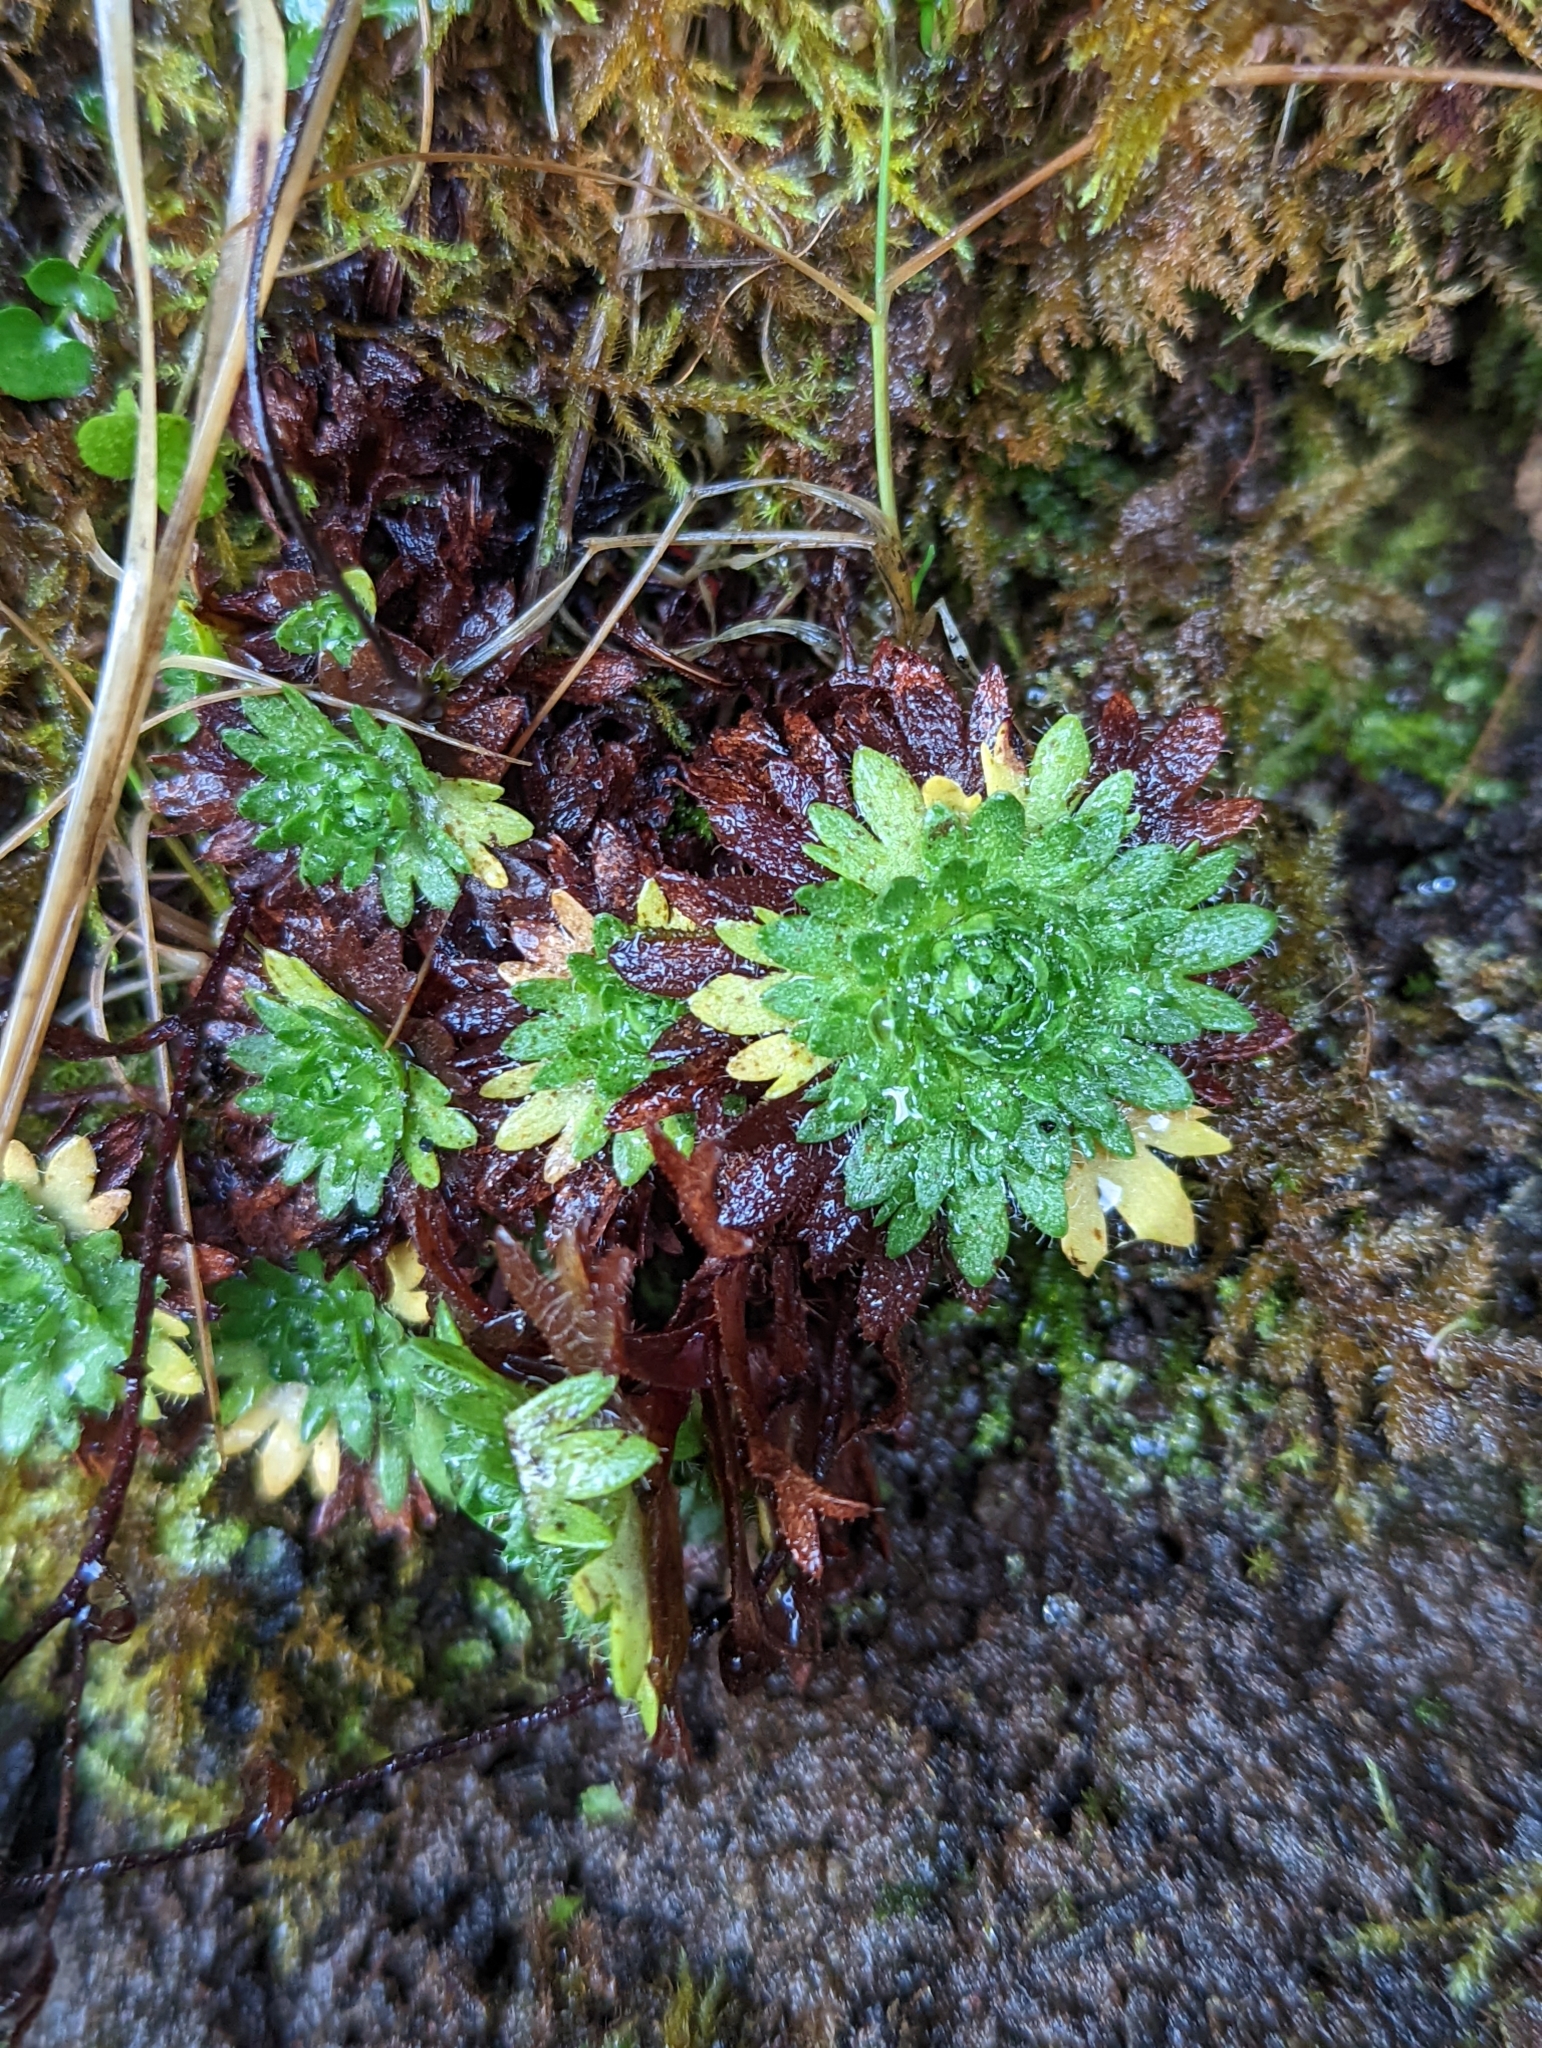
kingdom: Plantae
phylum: Tracheophyta
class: Magnoliopsida
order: Saxifragales
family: Saxifragaceae
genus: Saxifraga
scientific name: Saxifraga cespitosa
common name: Tufted saxifrage
